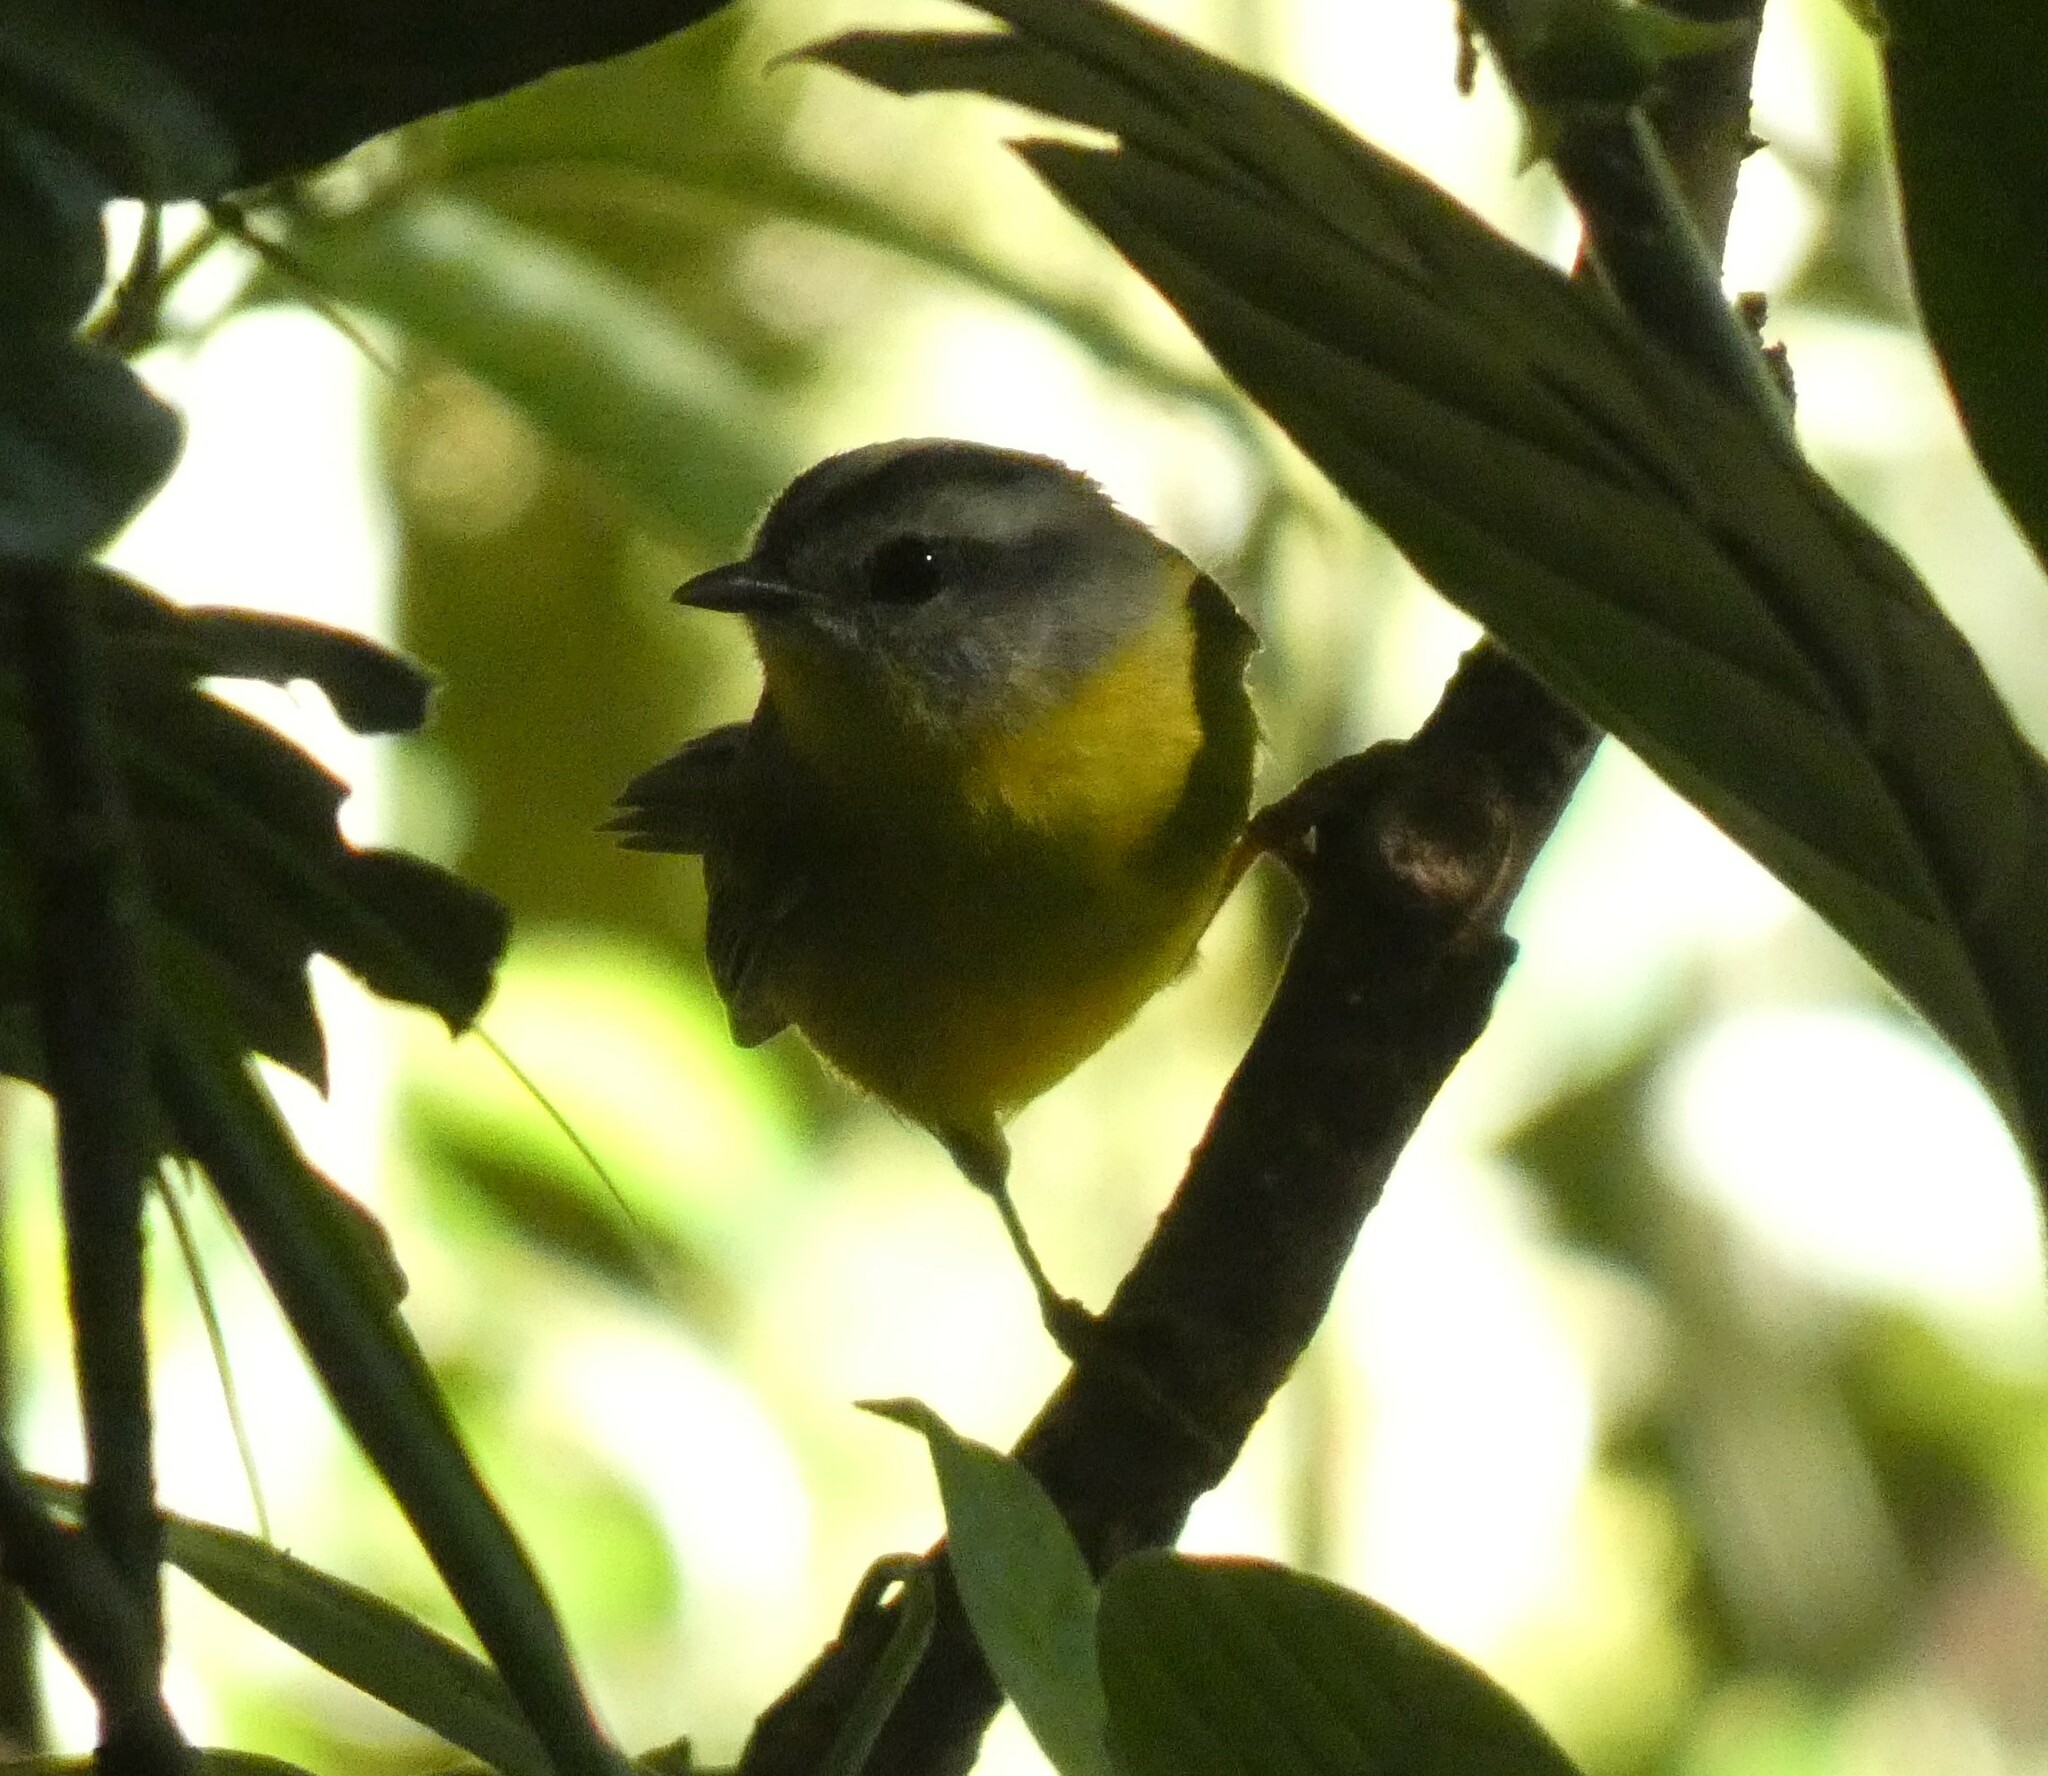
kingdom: Animalia
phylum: Chordata
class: Aves
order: Passeriformes
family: Parulidae
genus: Basileuterus
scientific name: Basileuterus culicivorus
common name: Golden-crowned warbler
